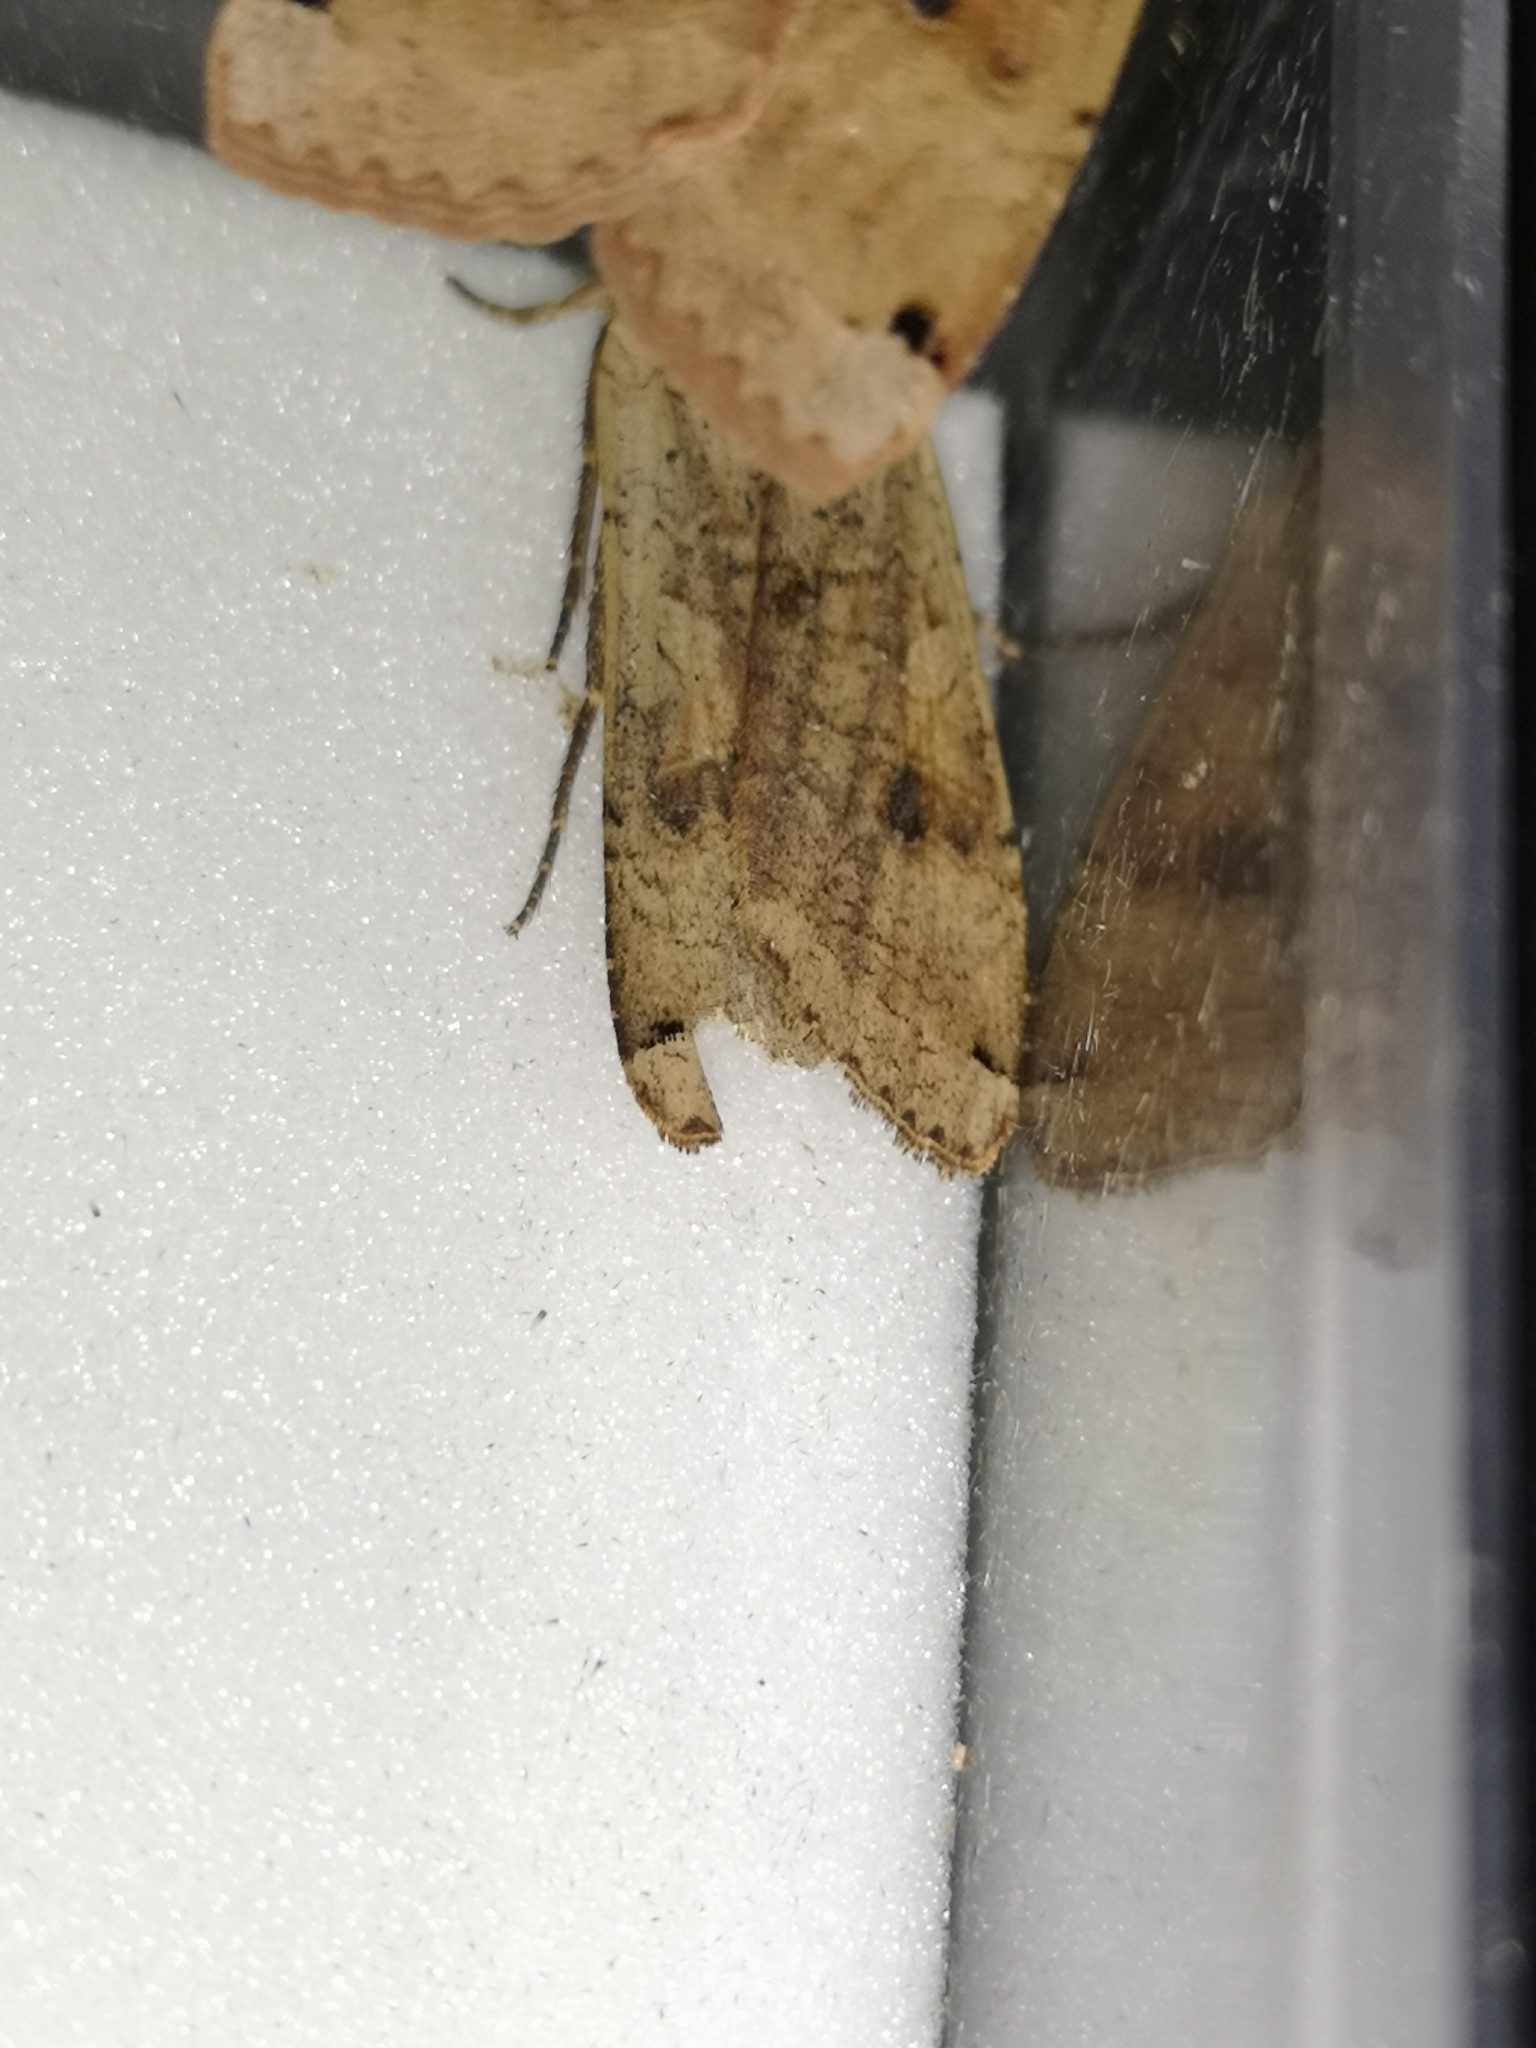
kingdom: Animalia
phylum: Arthropoda
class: Insecta
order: Lepidoptera
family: Noctuidae
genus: Noctua
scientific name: Noctua pronuba
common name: Large yellow underwing
